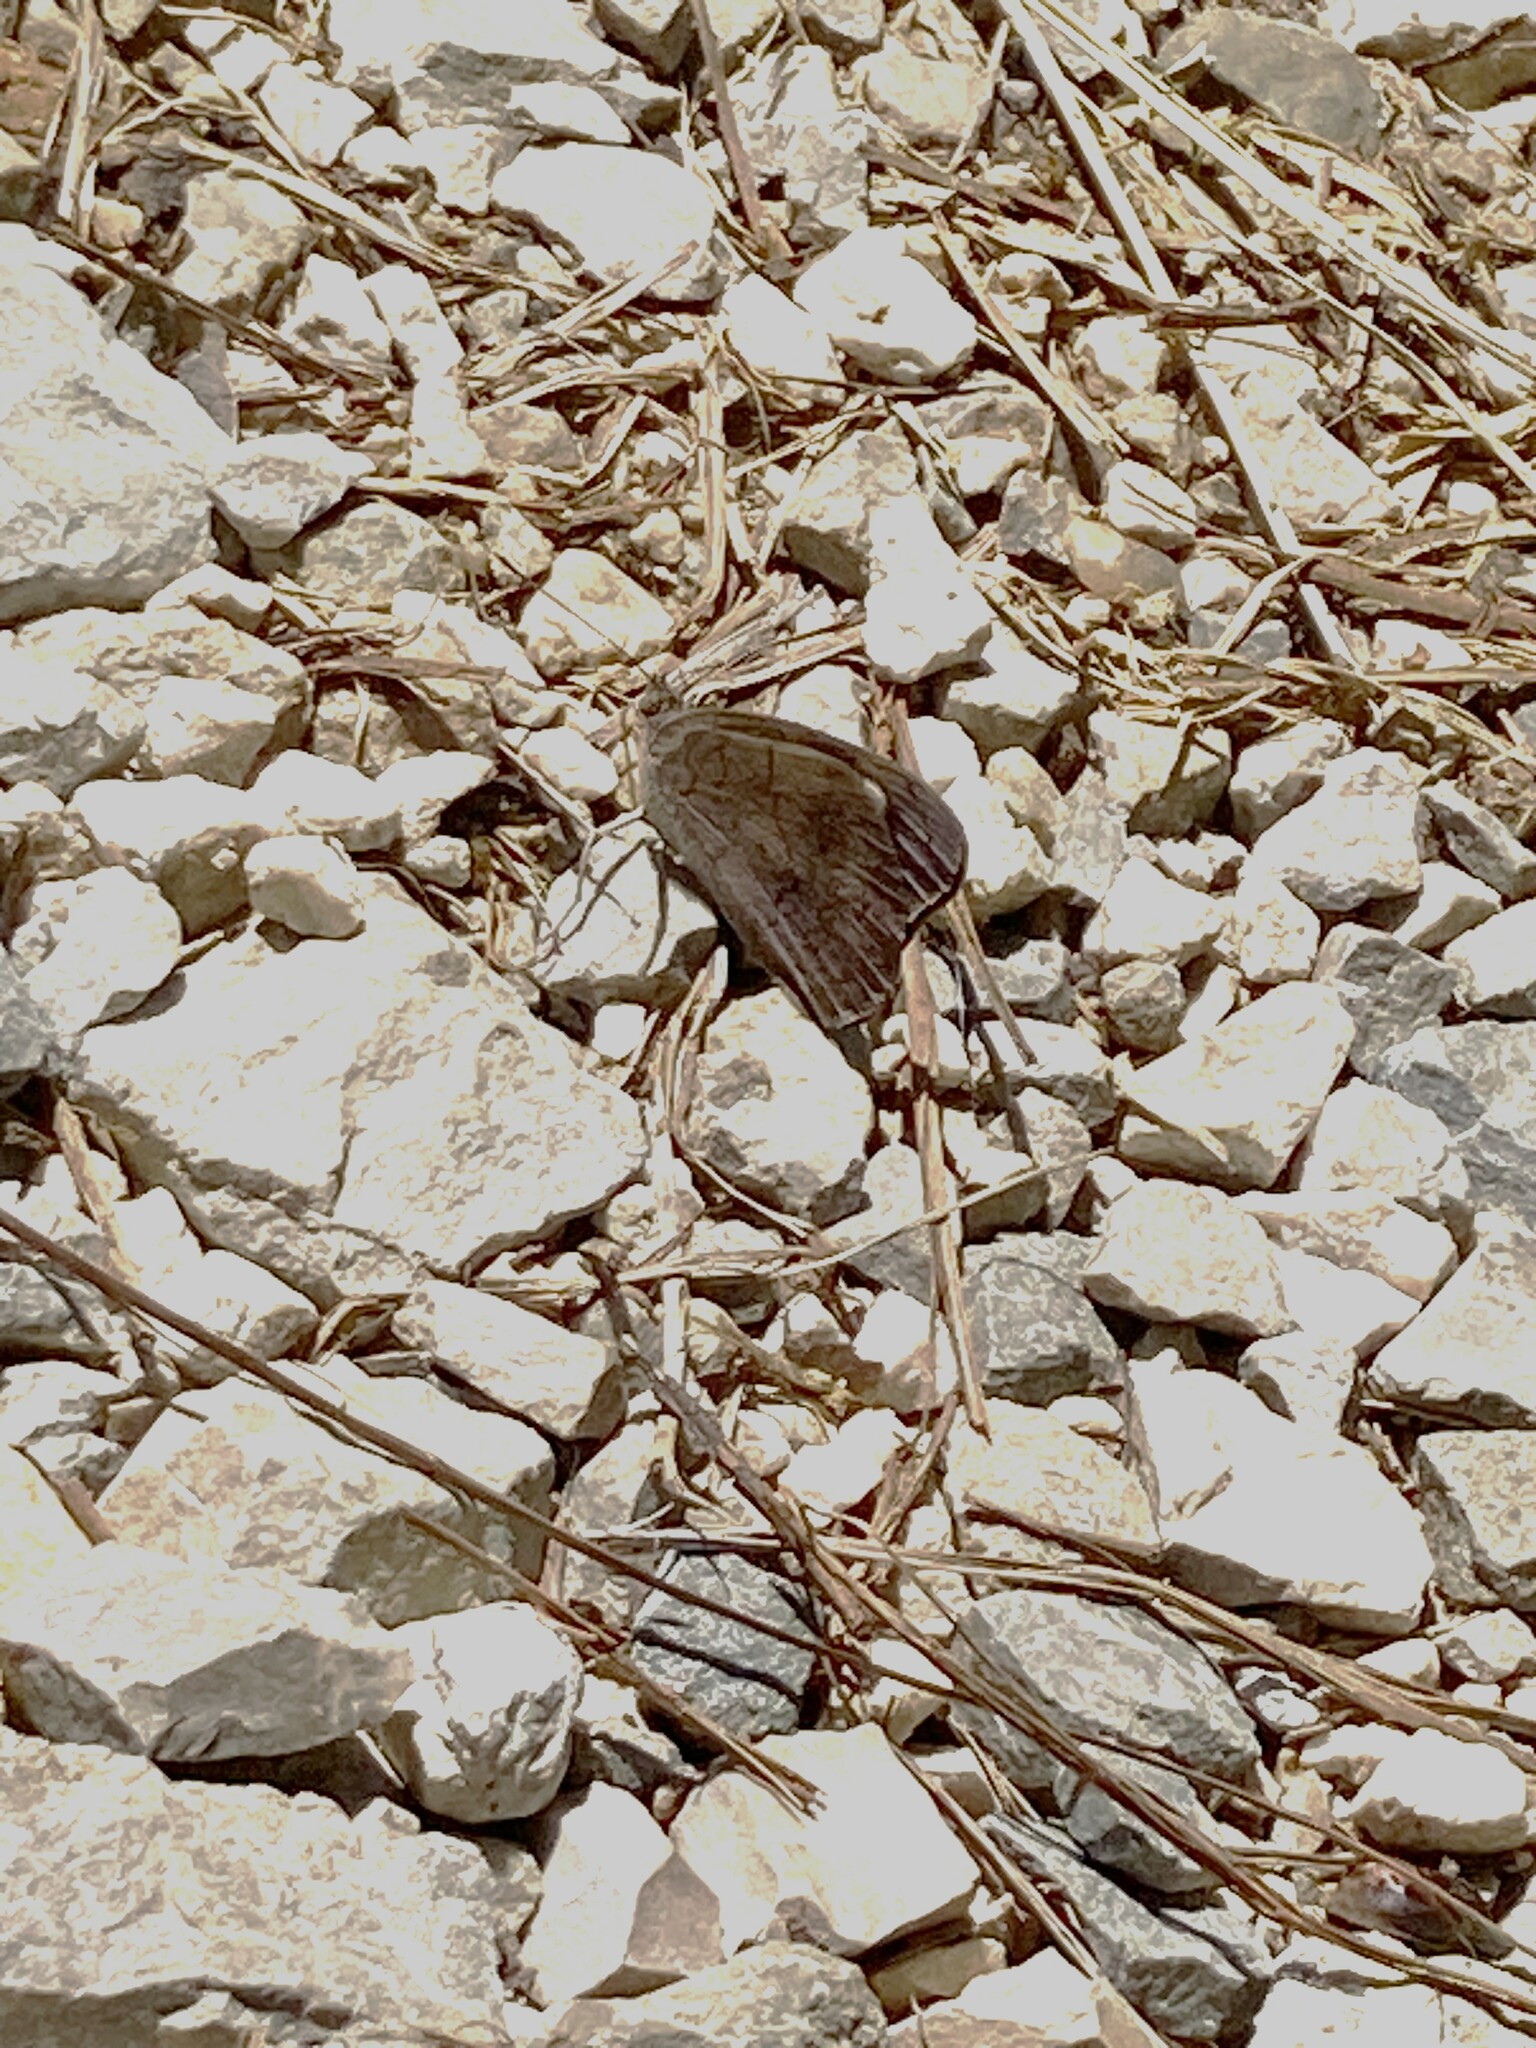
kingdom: Animalia
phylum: Arthropoda
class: Insecta
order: Lepidoptera
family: Nymphalidae
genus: Eunica
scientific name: Eunica monima
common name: Dingy purplewing
